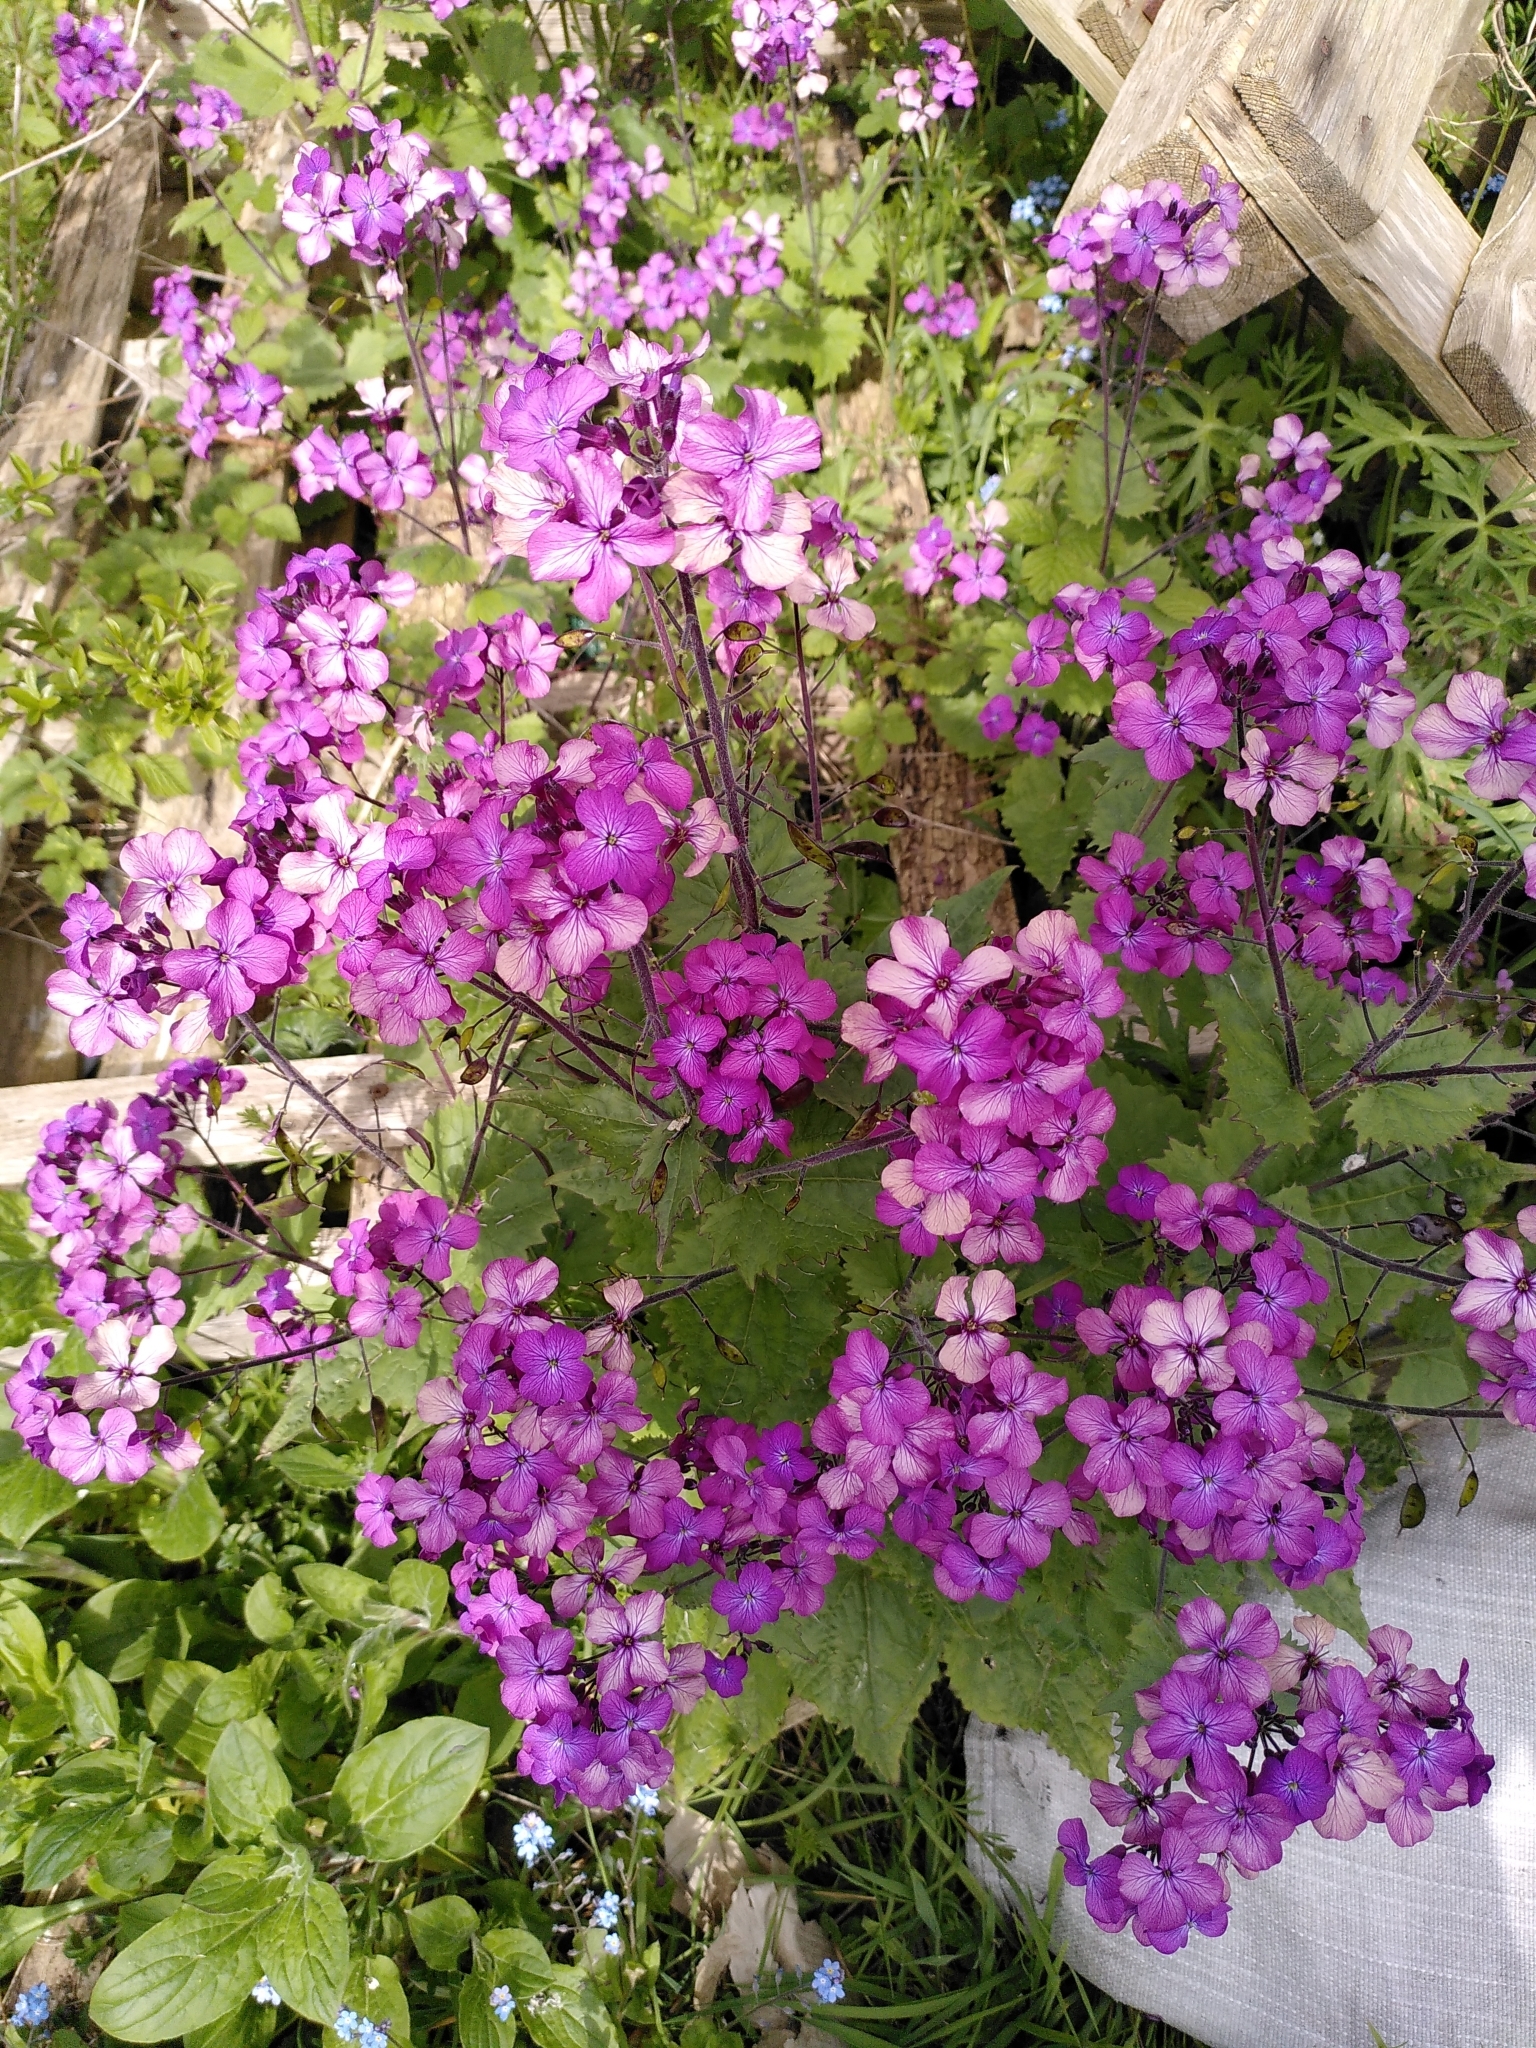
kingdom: Plantae
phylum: Tracheophyta
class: Magnoliopsida
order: Brassicales
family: Brassicaceae
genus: Lunaria
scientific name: Lunaria annua
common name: Honesty
